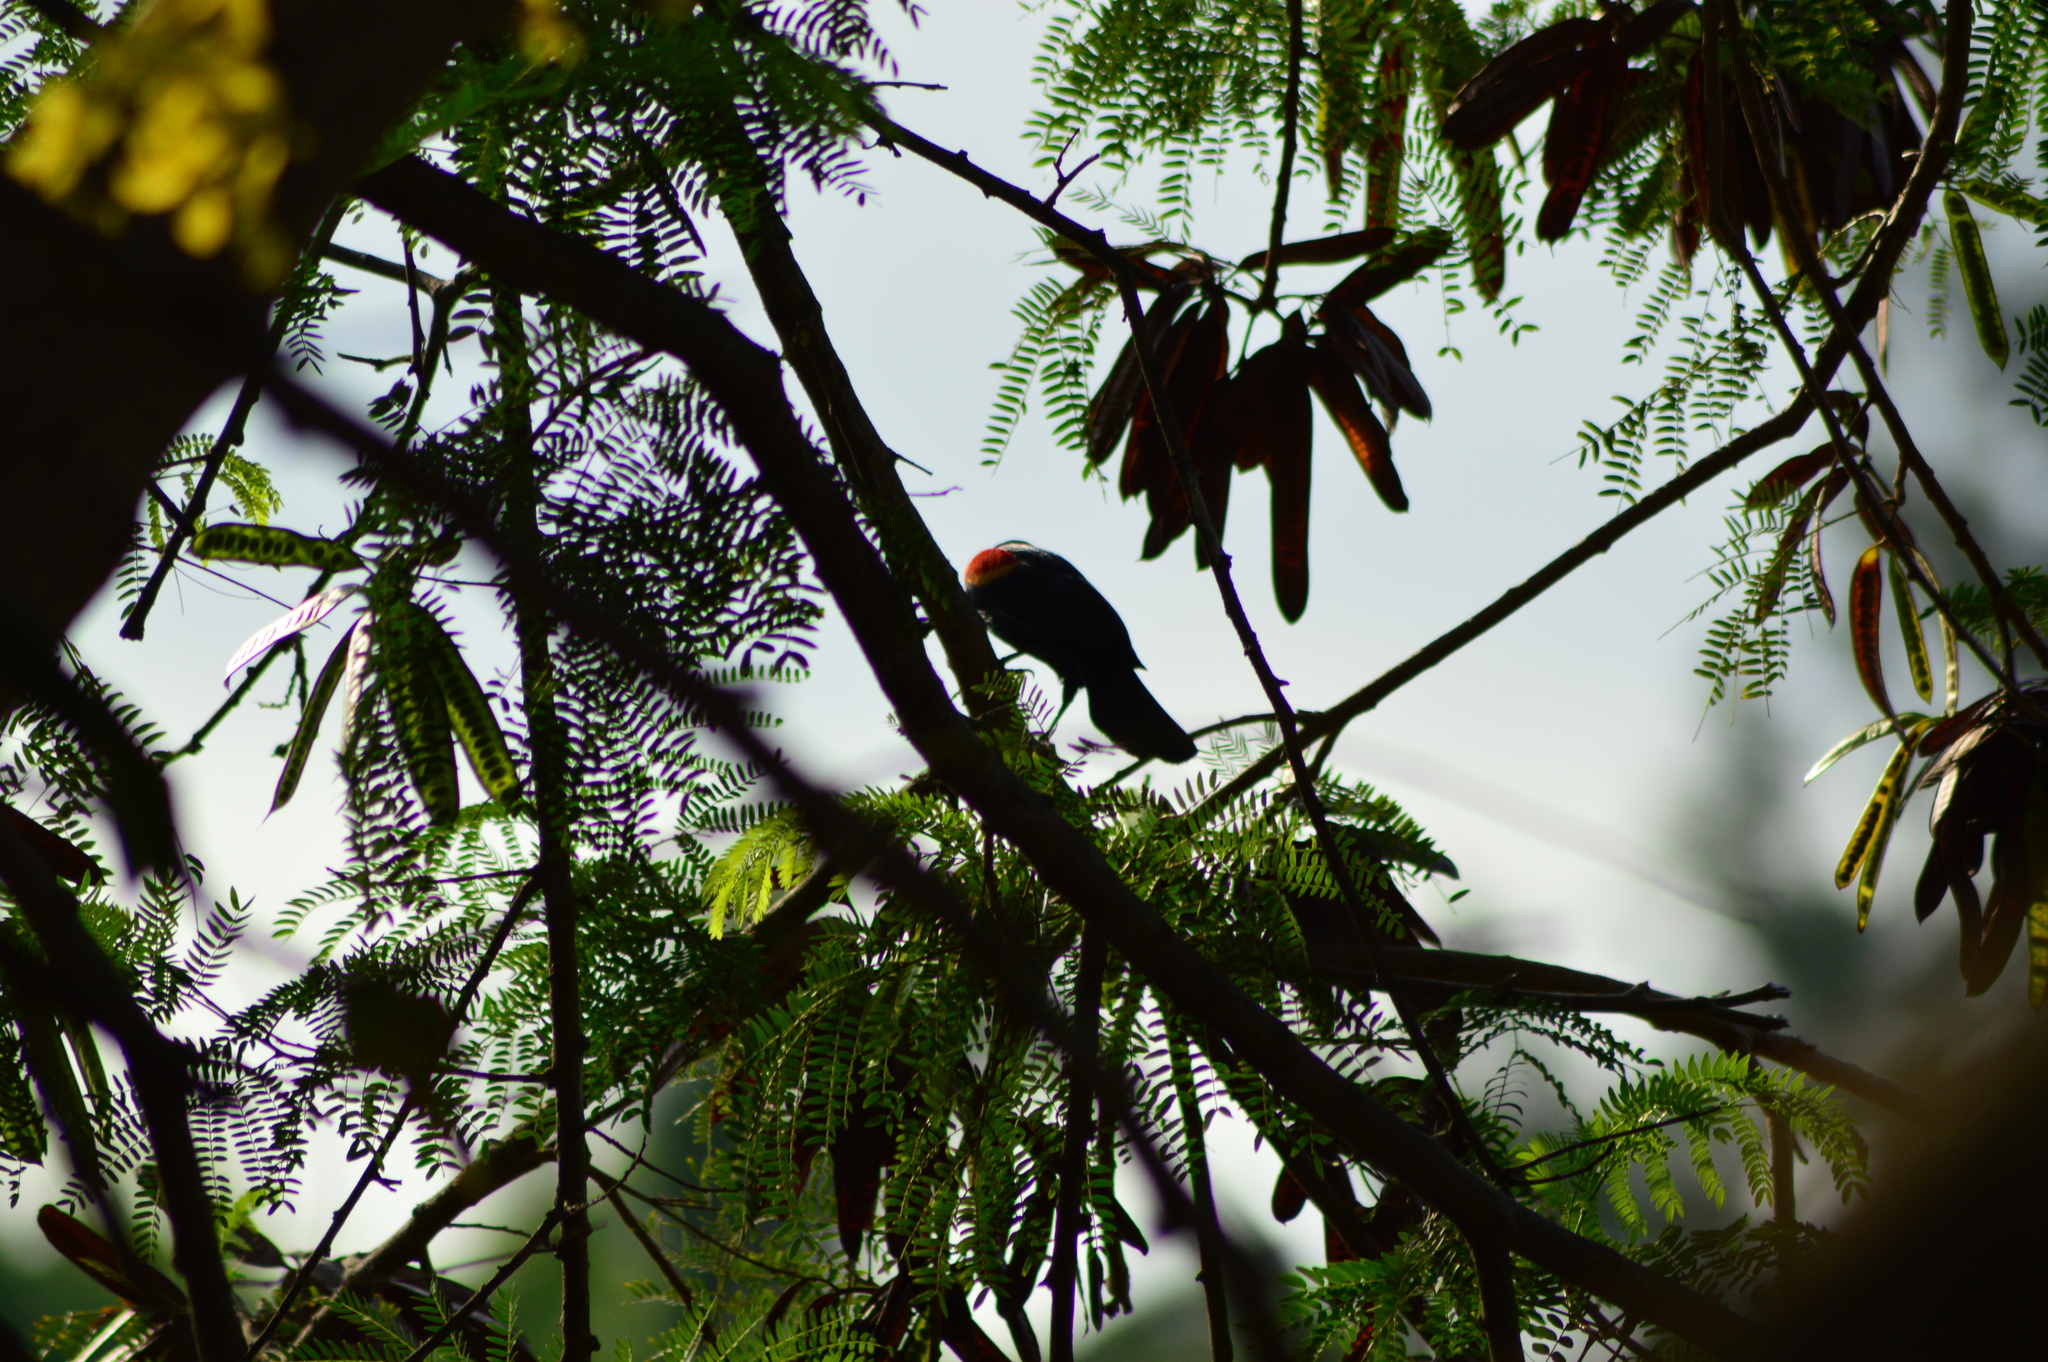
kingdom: Animalia
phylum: Chordata
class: Aves
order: Passeriformes
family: Icteridae
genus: Agelaius
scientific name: Agelaius phoeniceus
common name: Red-winged blackbird
